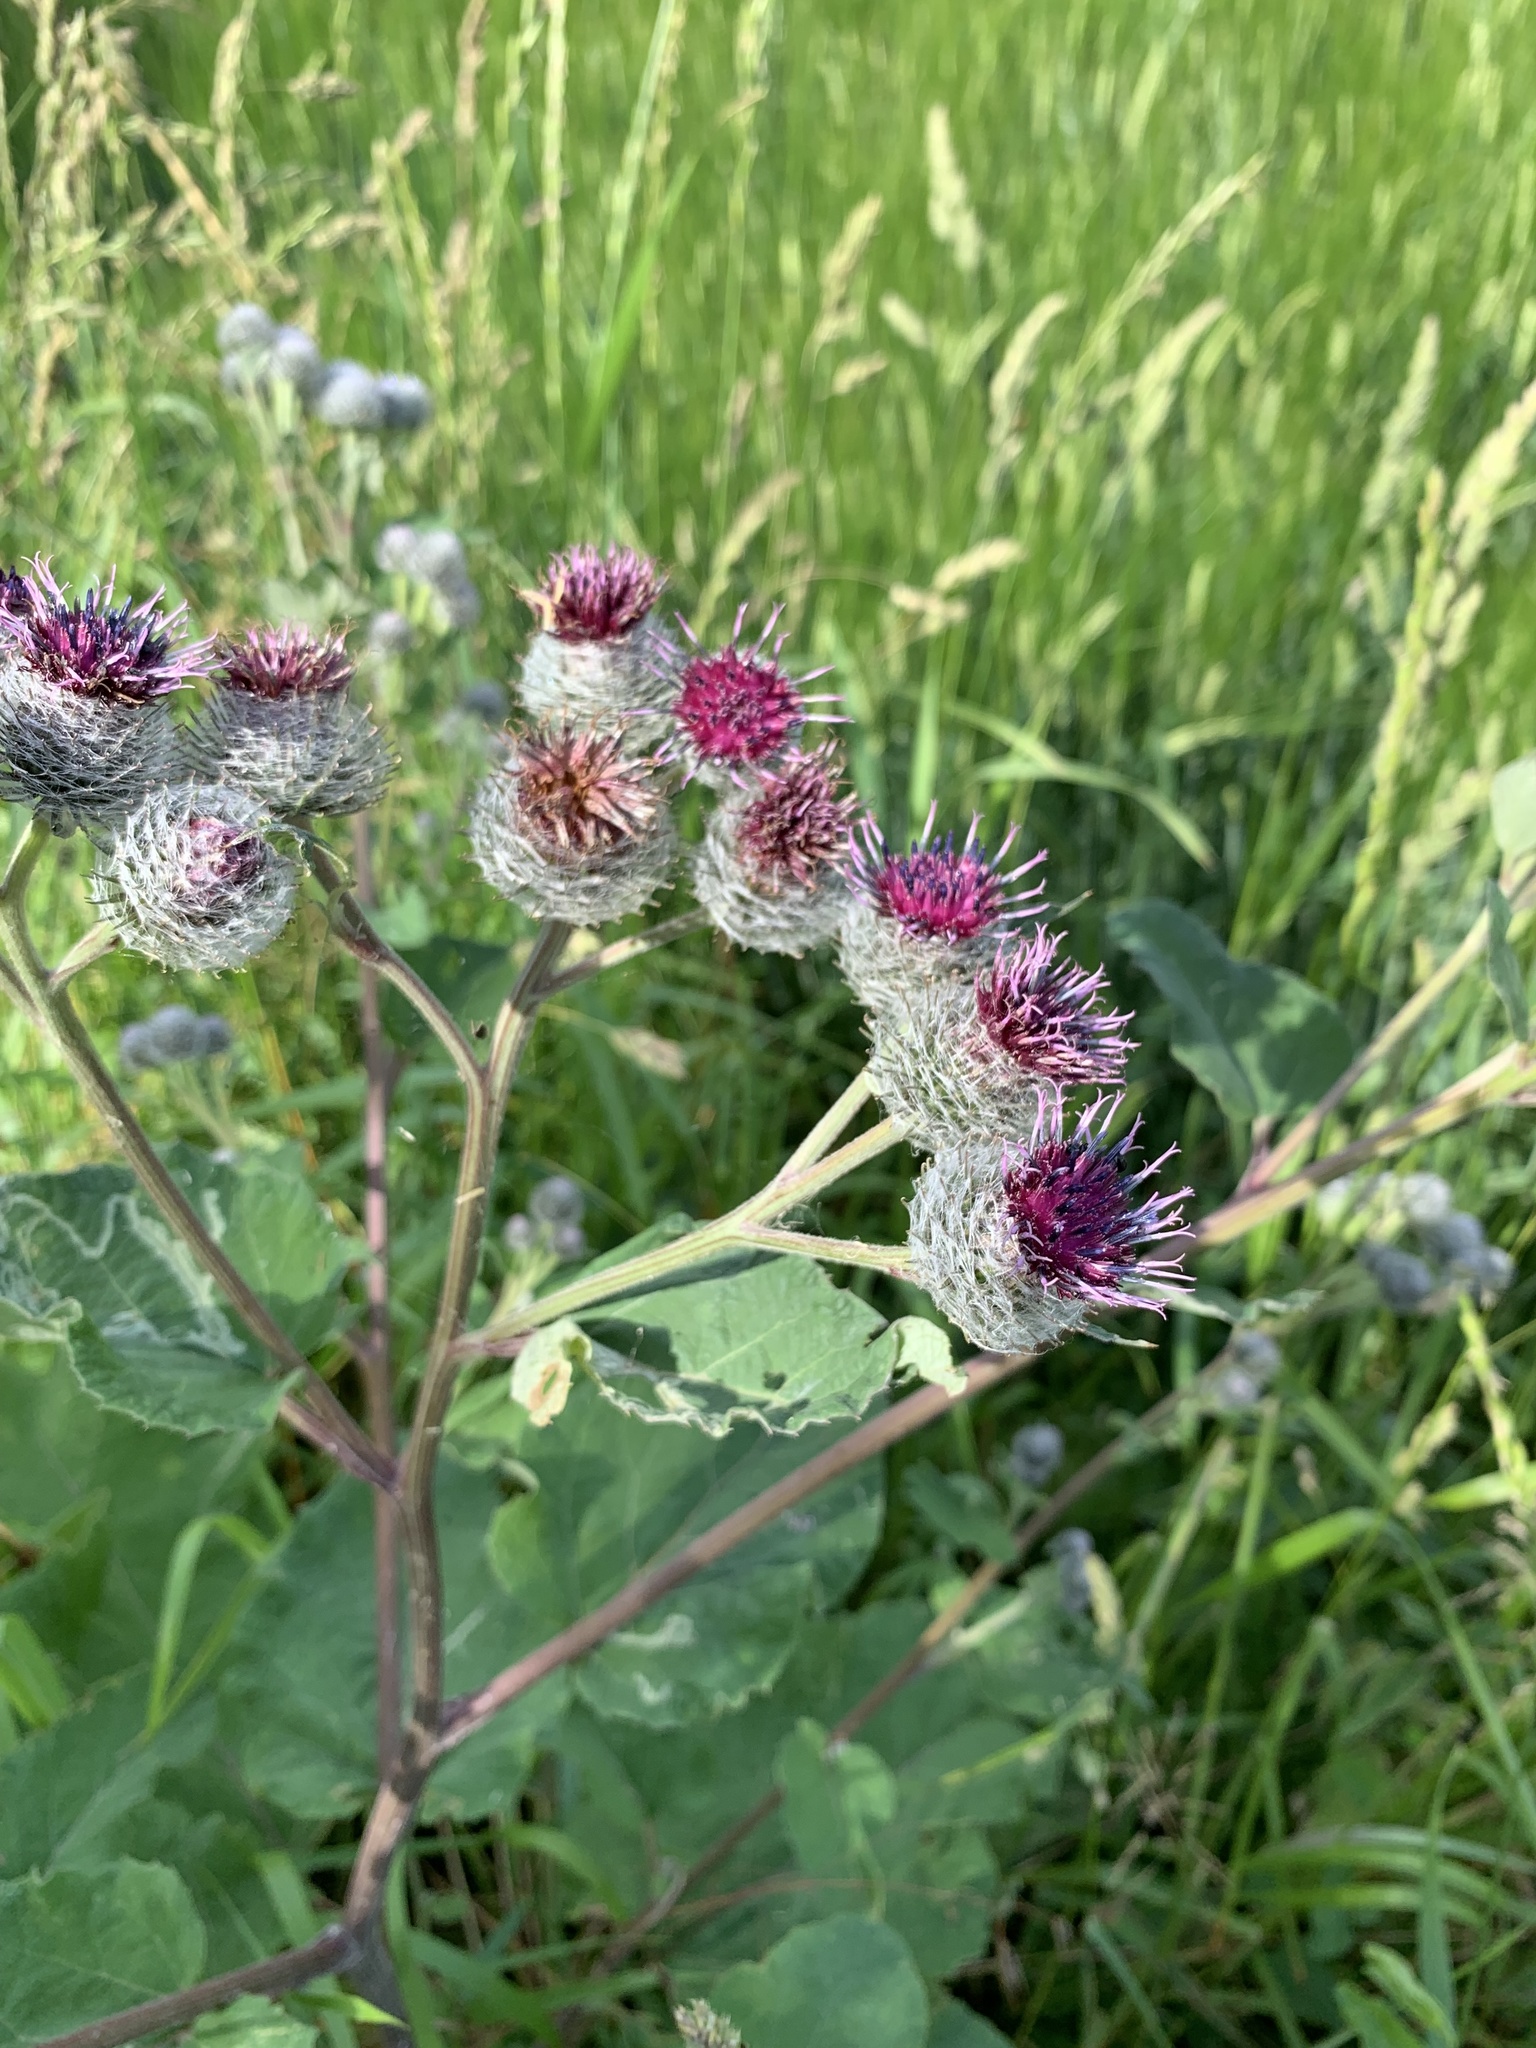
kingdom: Plantae
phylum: Tracheophyta
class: Magnoliopsida
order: Asterales
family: Asteraceae
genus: Arctium
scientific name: Arctium tomentosum
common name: Woolly burdock
